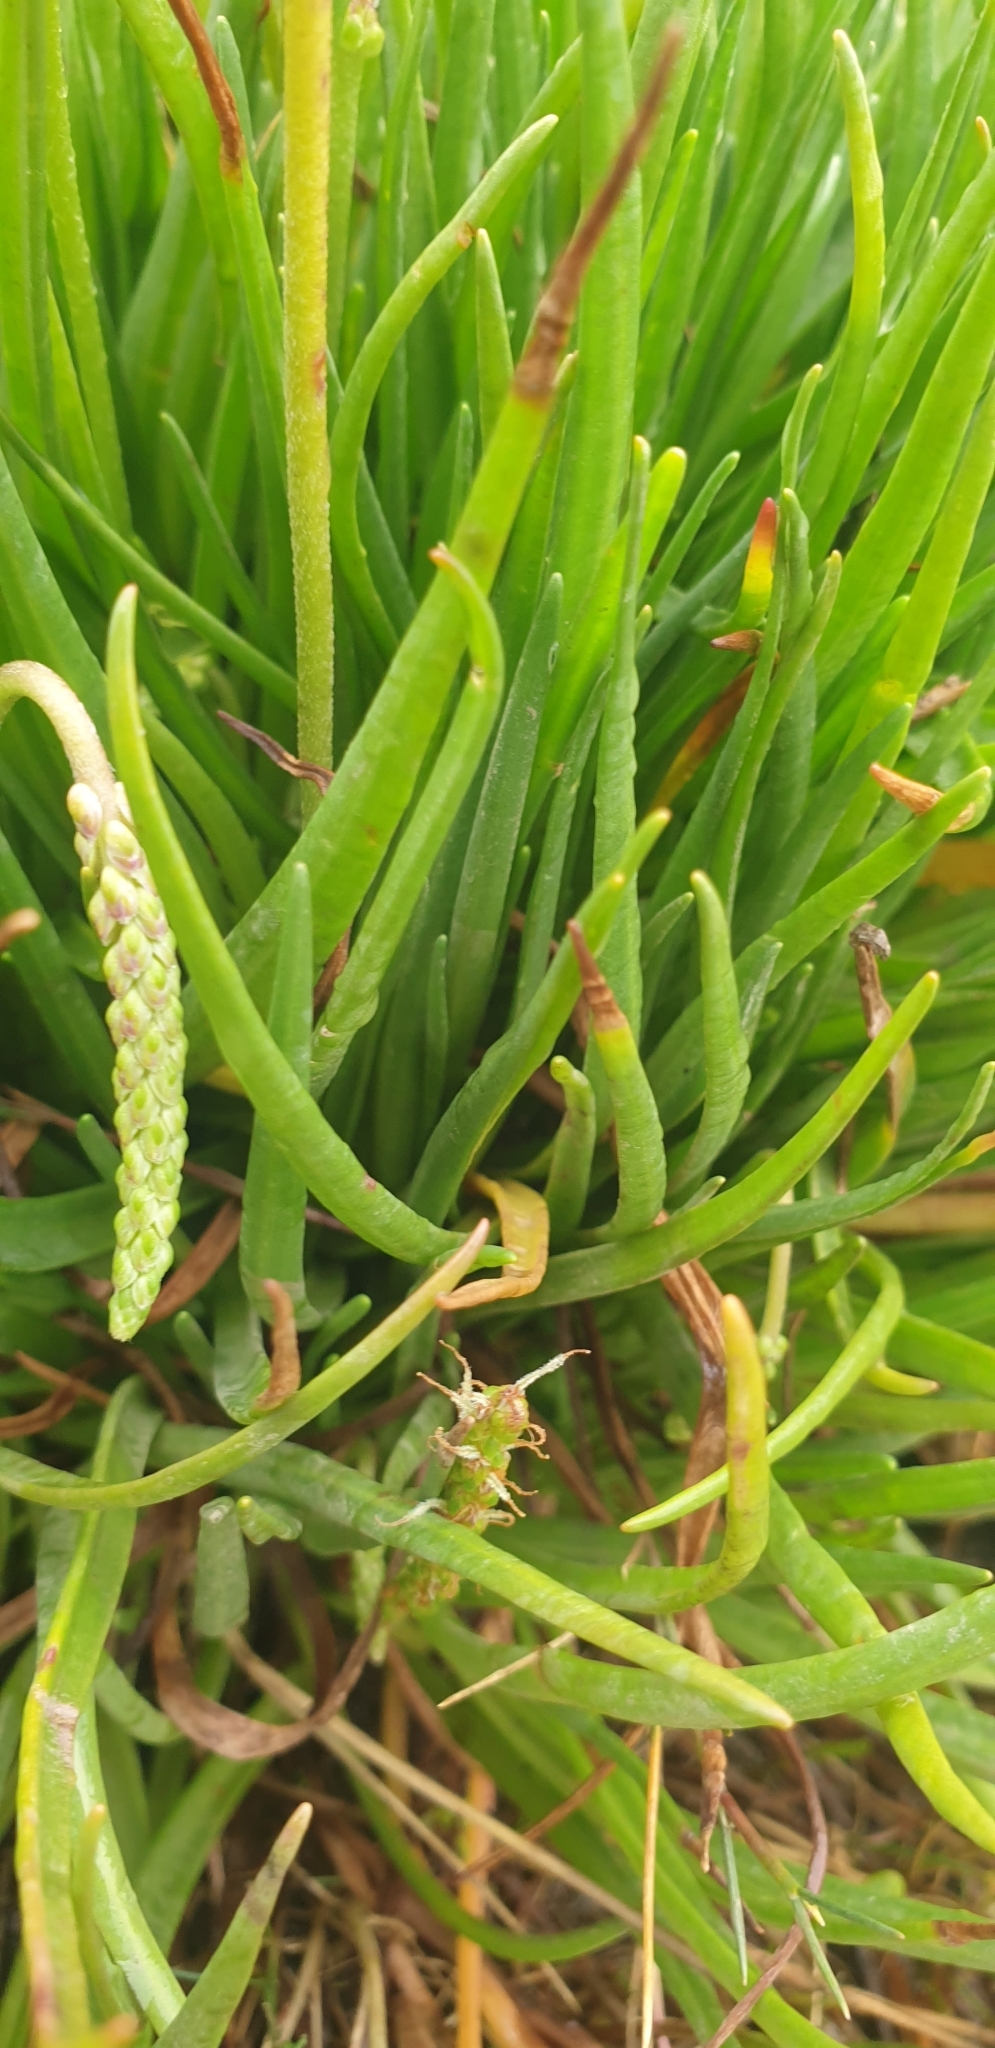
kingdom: Plantae
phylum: Tracheophyta
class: Magnoliopsida
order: Lamiales
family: Plantaginaceae
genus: Plantago
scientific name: Plantago maritima
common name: Sea plantain
